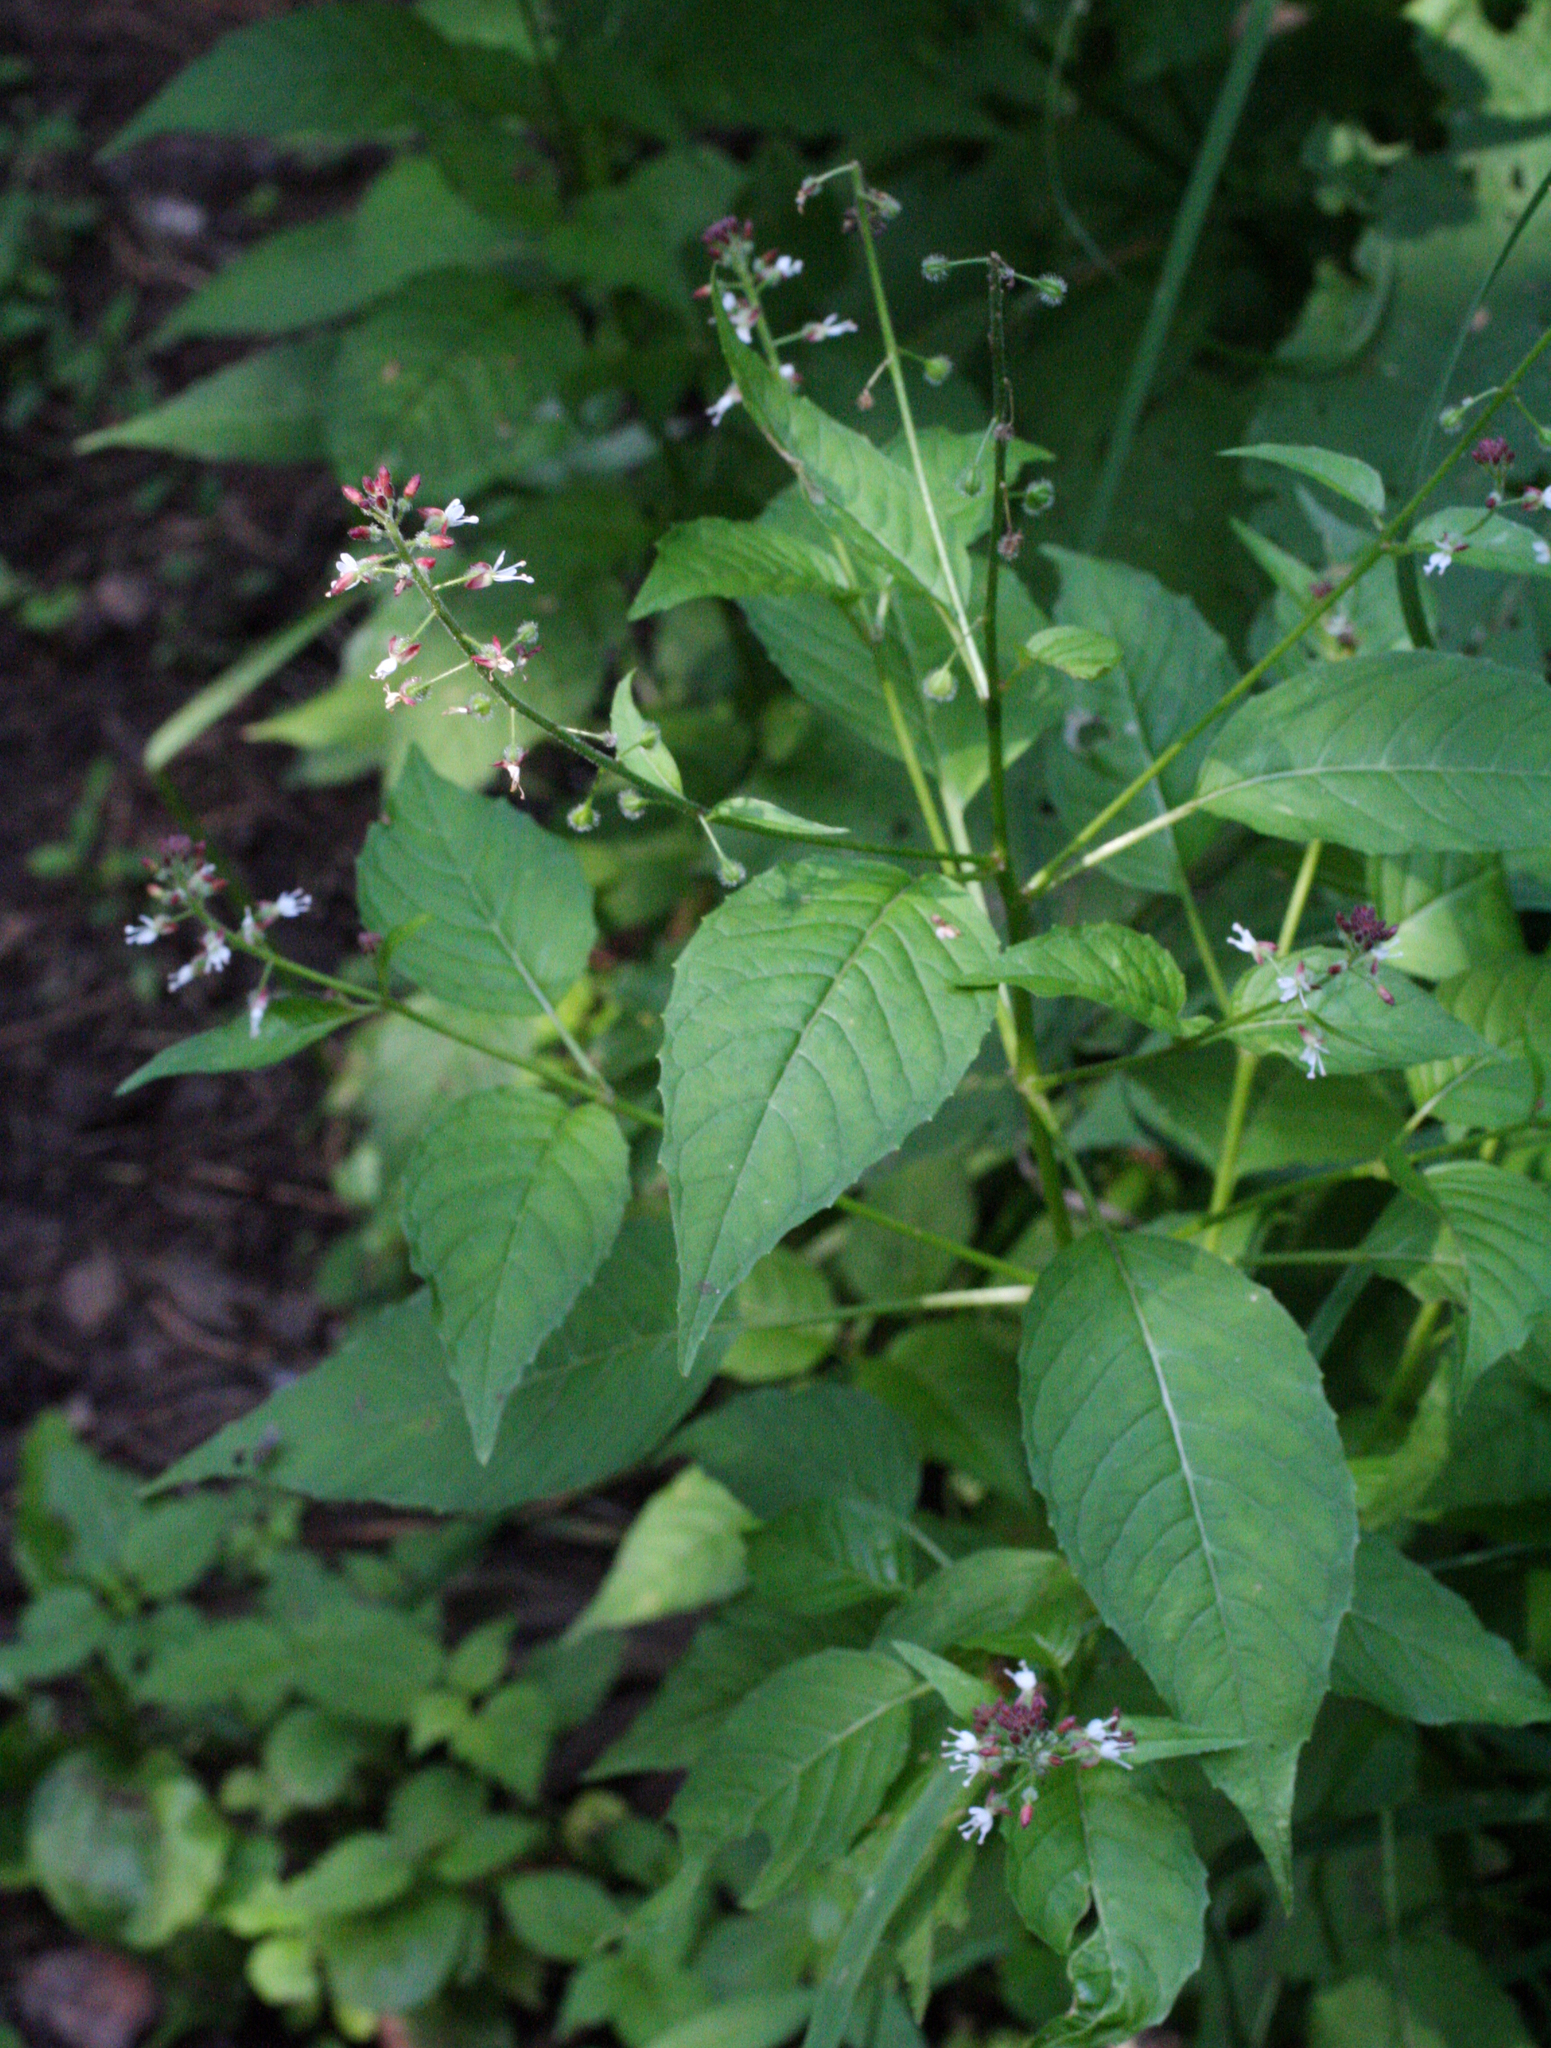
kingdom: Plantae
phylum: Tracheophyta
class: Magnoliopsida
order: Myrtales
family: Onagraceae
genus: Circaea
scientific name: Circaea canadensis
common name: Broad-leaved enchanter's nightshade
